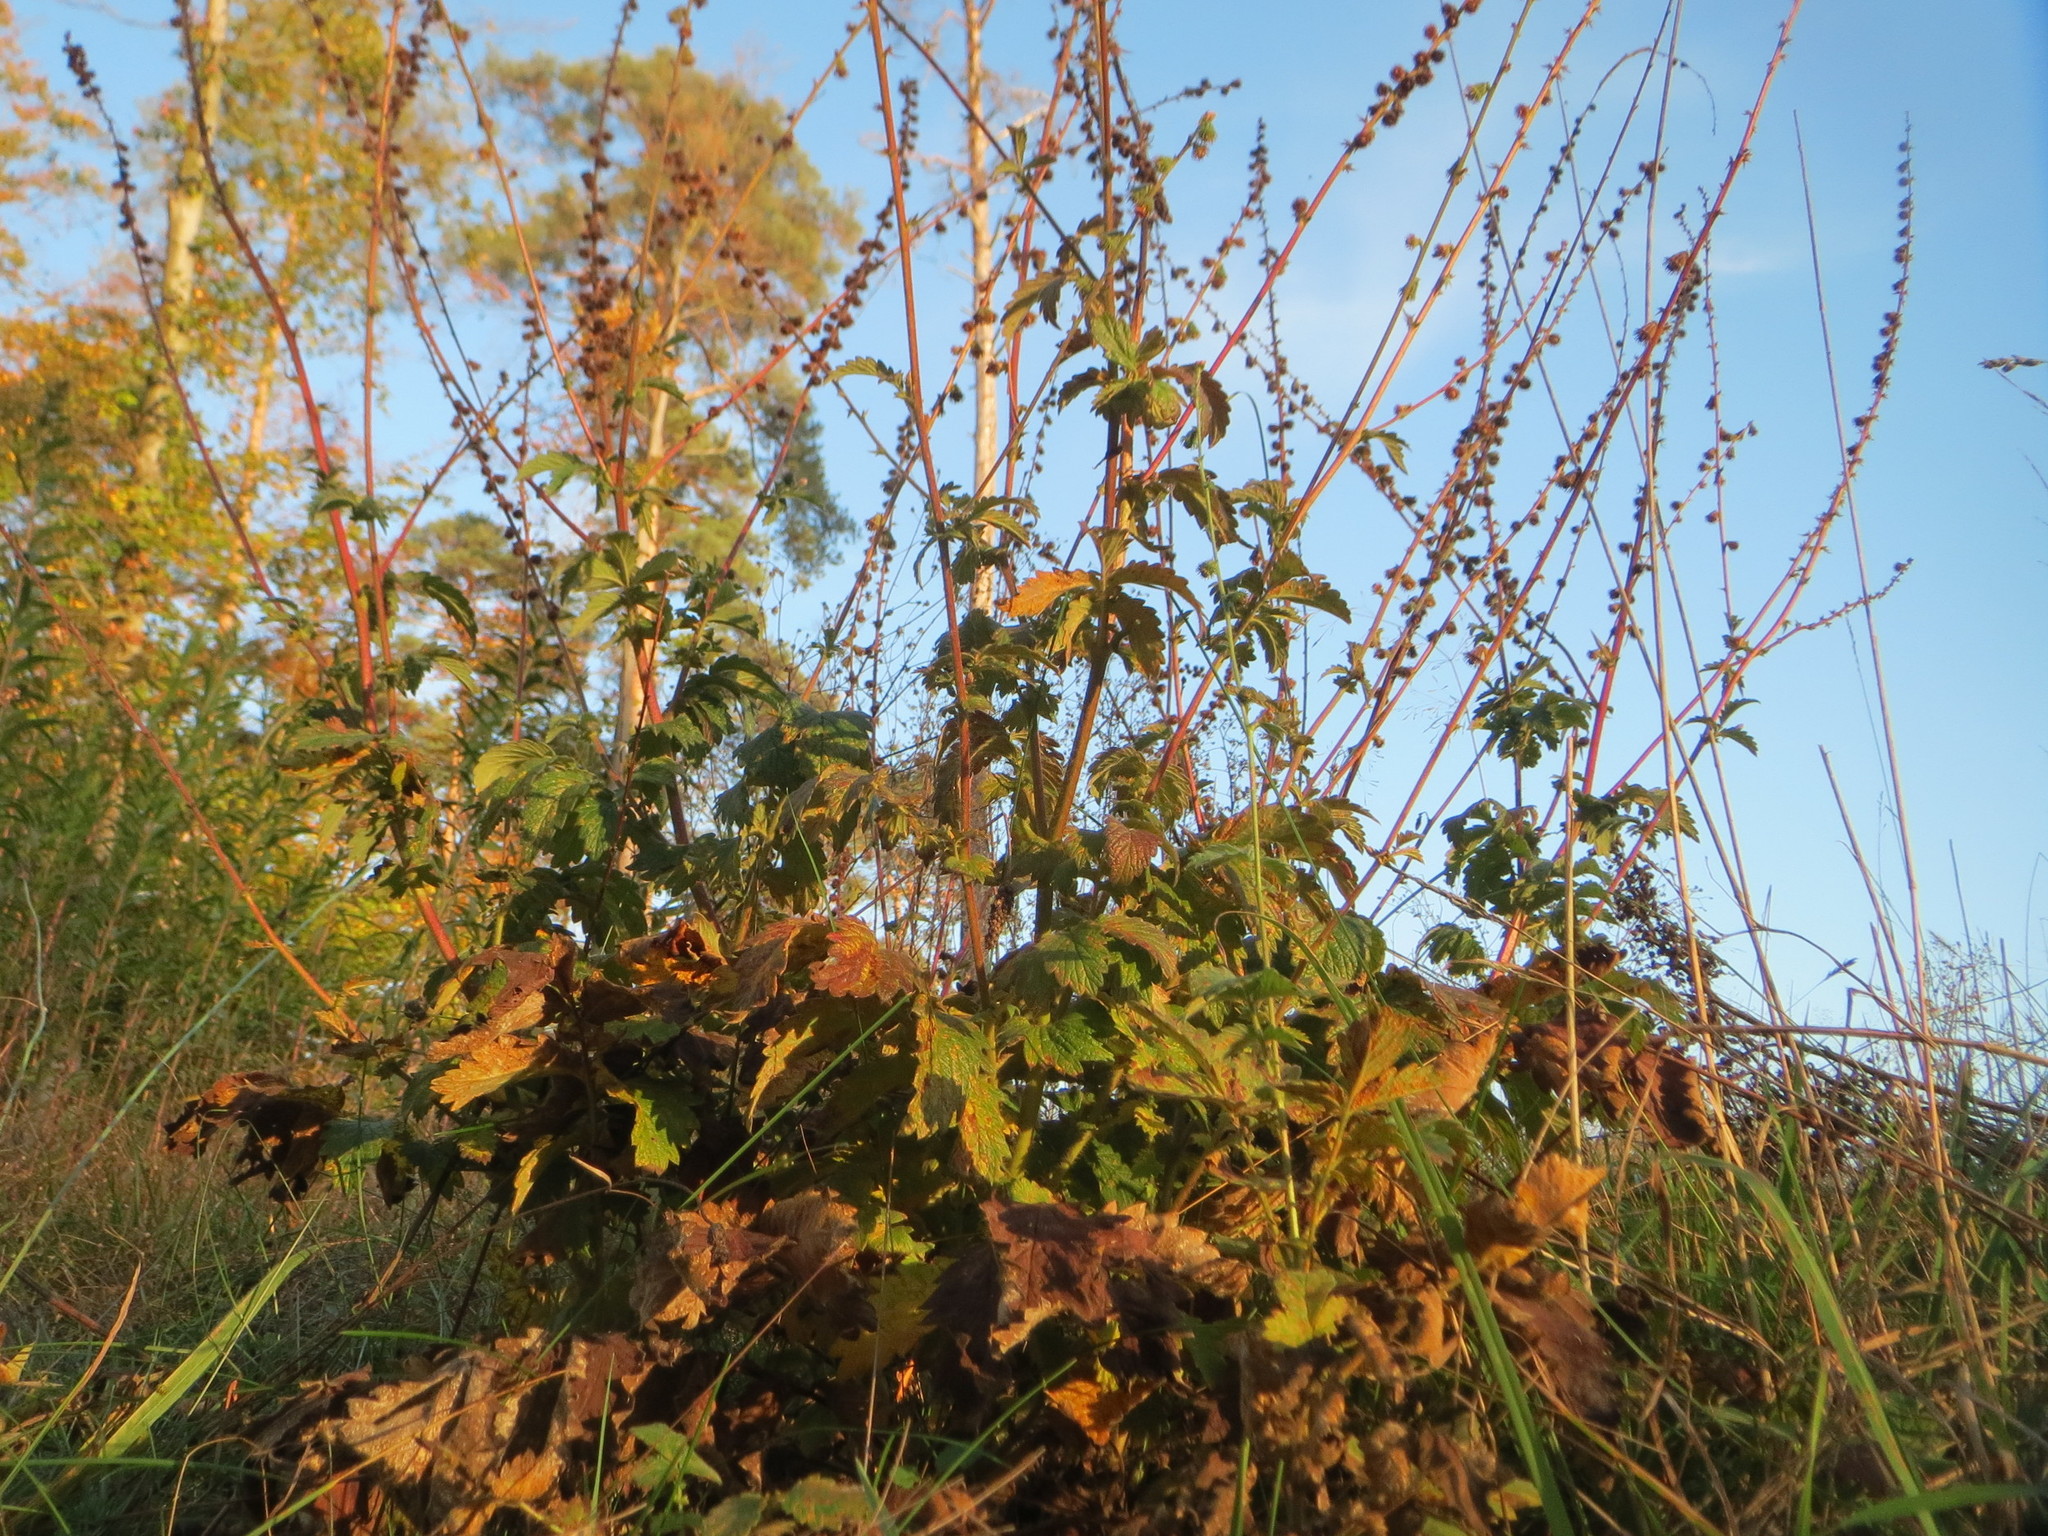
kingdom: Plantae
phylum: Tracheophyta
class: Magnoliopsida
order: Rosales
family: Rosaceae
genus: Agrimonia
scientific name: Agrimonia eupatoria
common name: Agrimony
